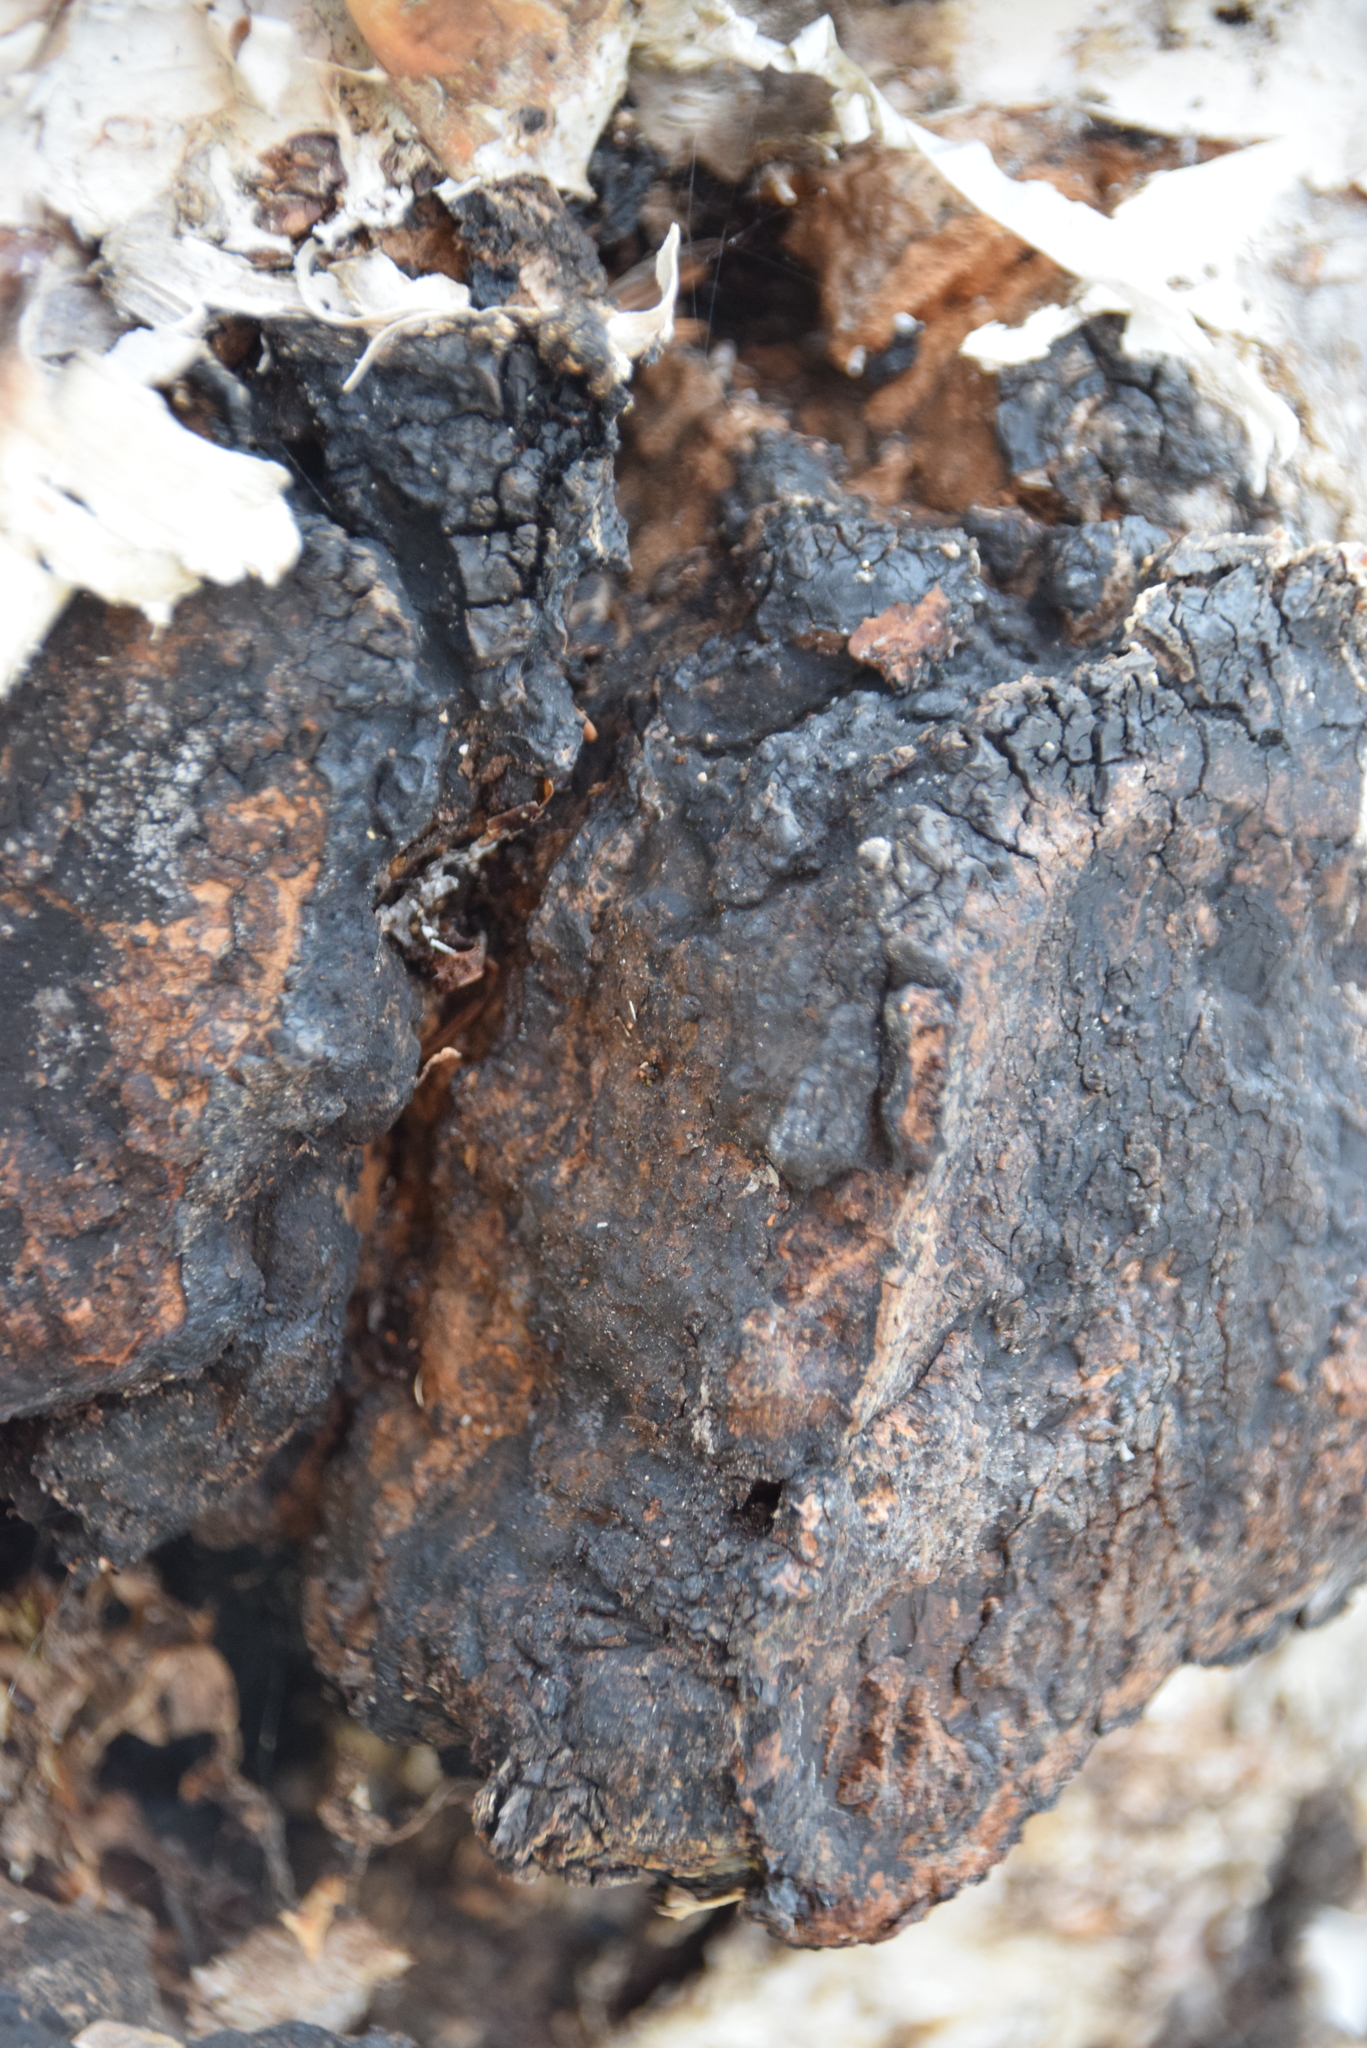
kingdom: Fungi
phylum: Basidiomycota
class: Agaricomycetes
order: Hymenochaetales
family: Hymenochaetaceae
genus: Inonotus
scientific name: Inonotus obliquus
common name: Chaga
